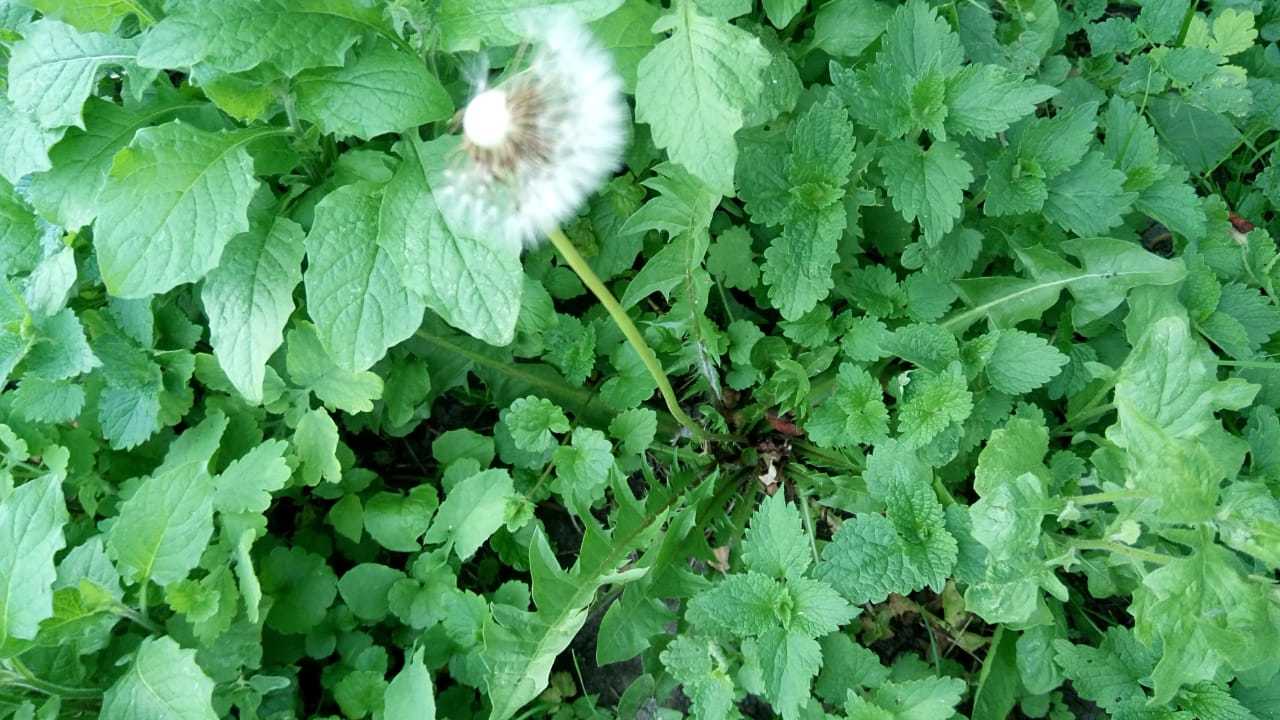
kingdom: Plantae
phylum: Tracheophyta
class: Magnoliopsida
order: Asterales
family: Asteraceae
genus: Taraxacum
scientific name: Taraxacum officinale
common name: Common dandelion
